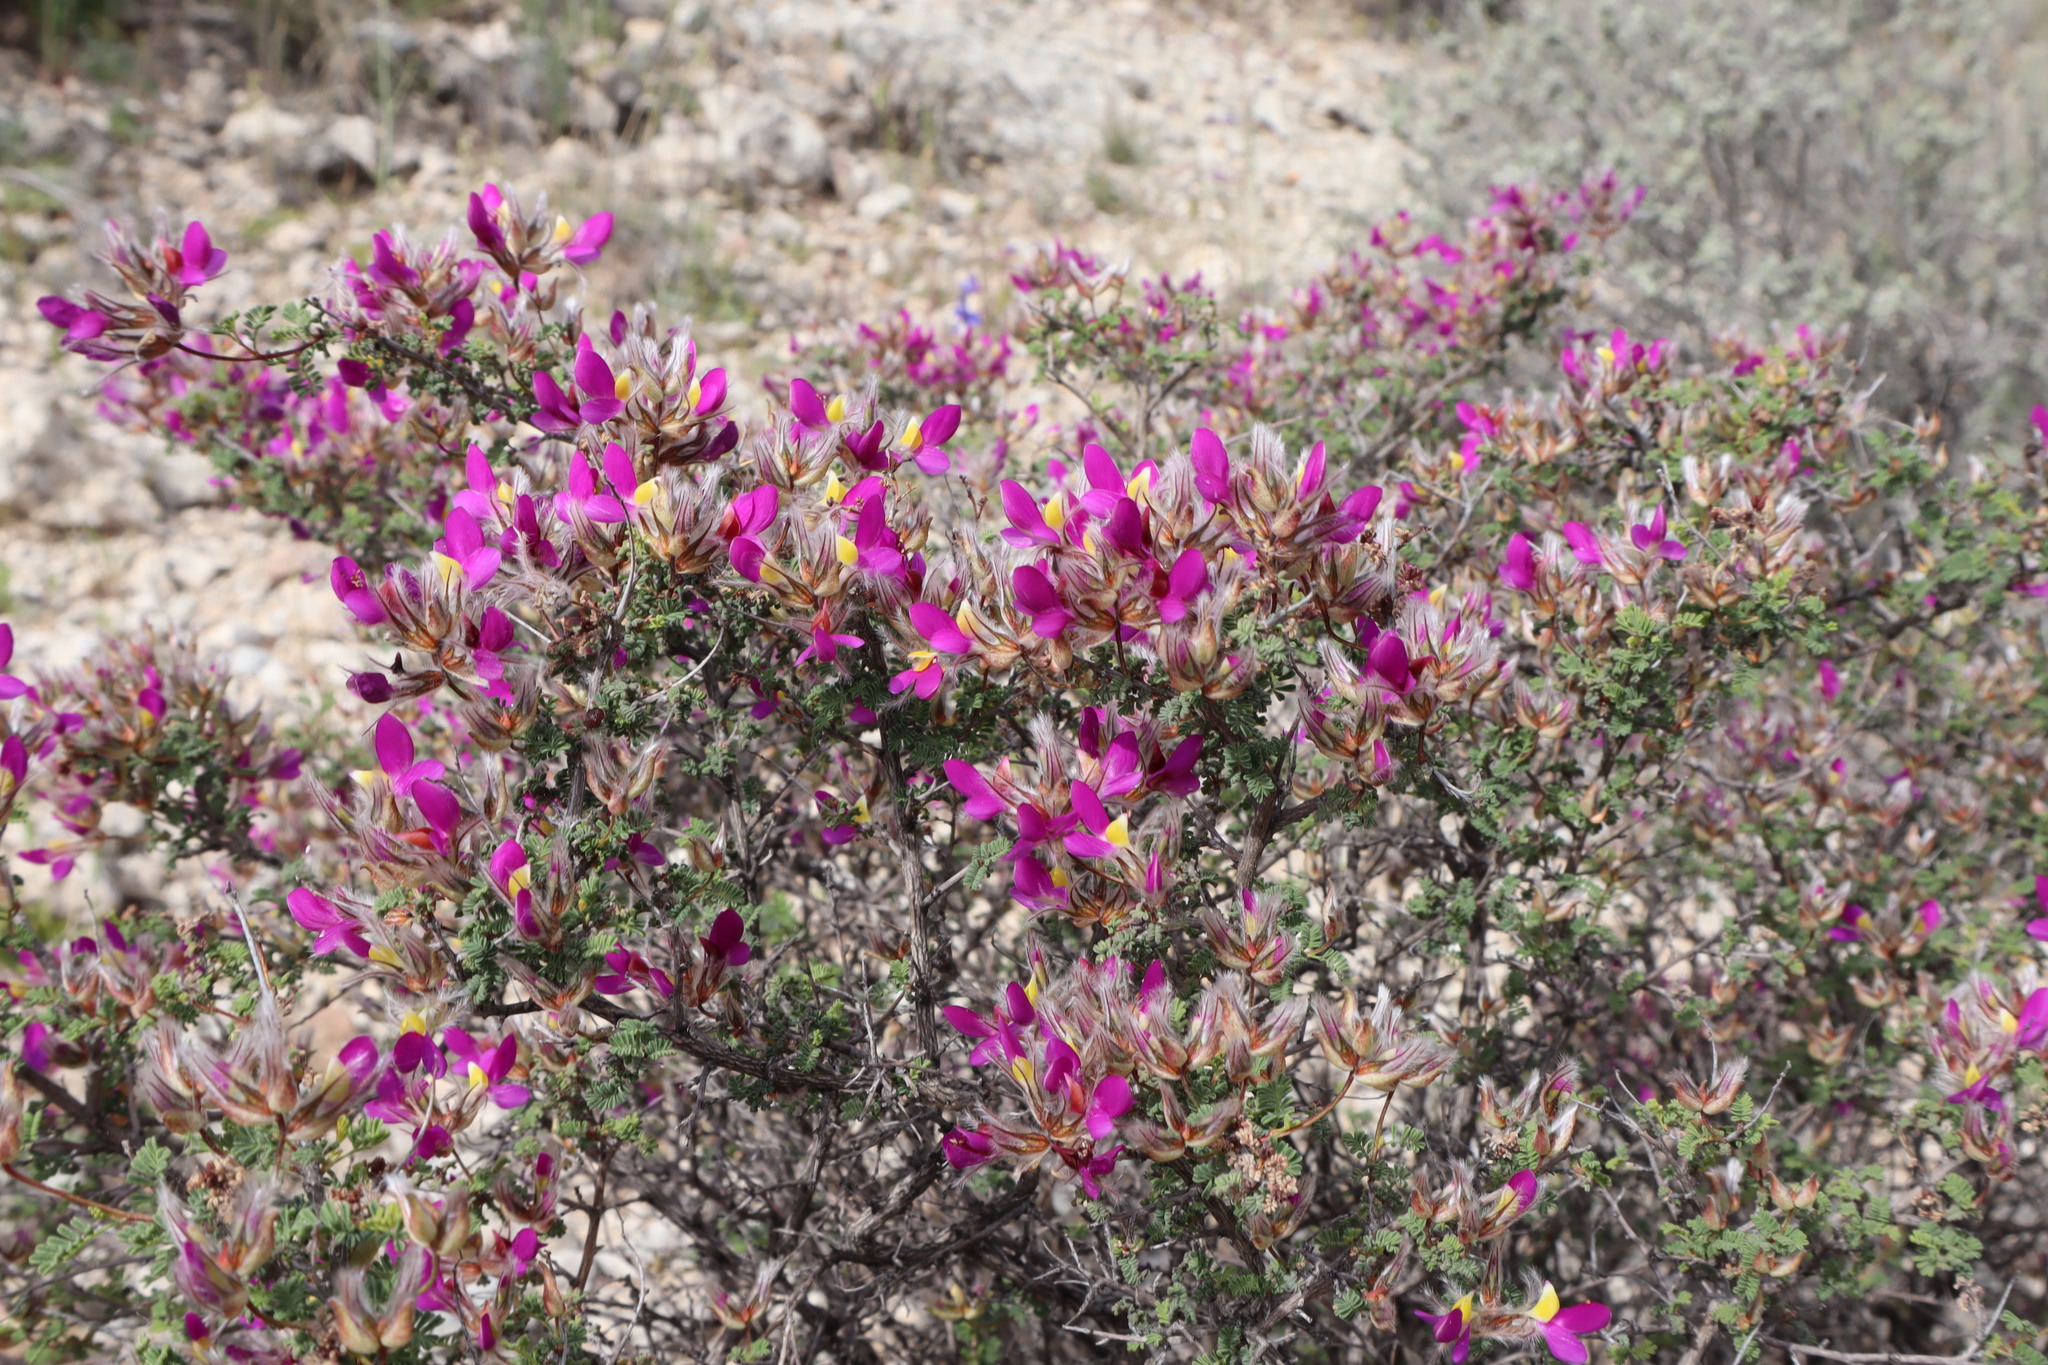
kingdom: Plantae
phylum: Tracheophyta
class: Magnoliopsida
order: Fabales
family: Fabaceae
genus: Dalea
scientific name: Dalea formosa
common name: Feather-plume dalea
